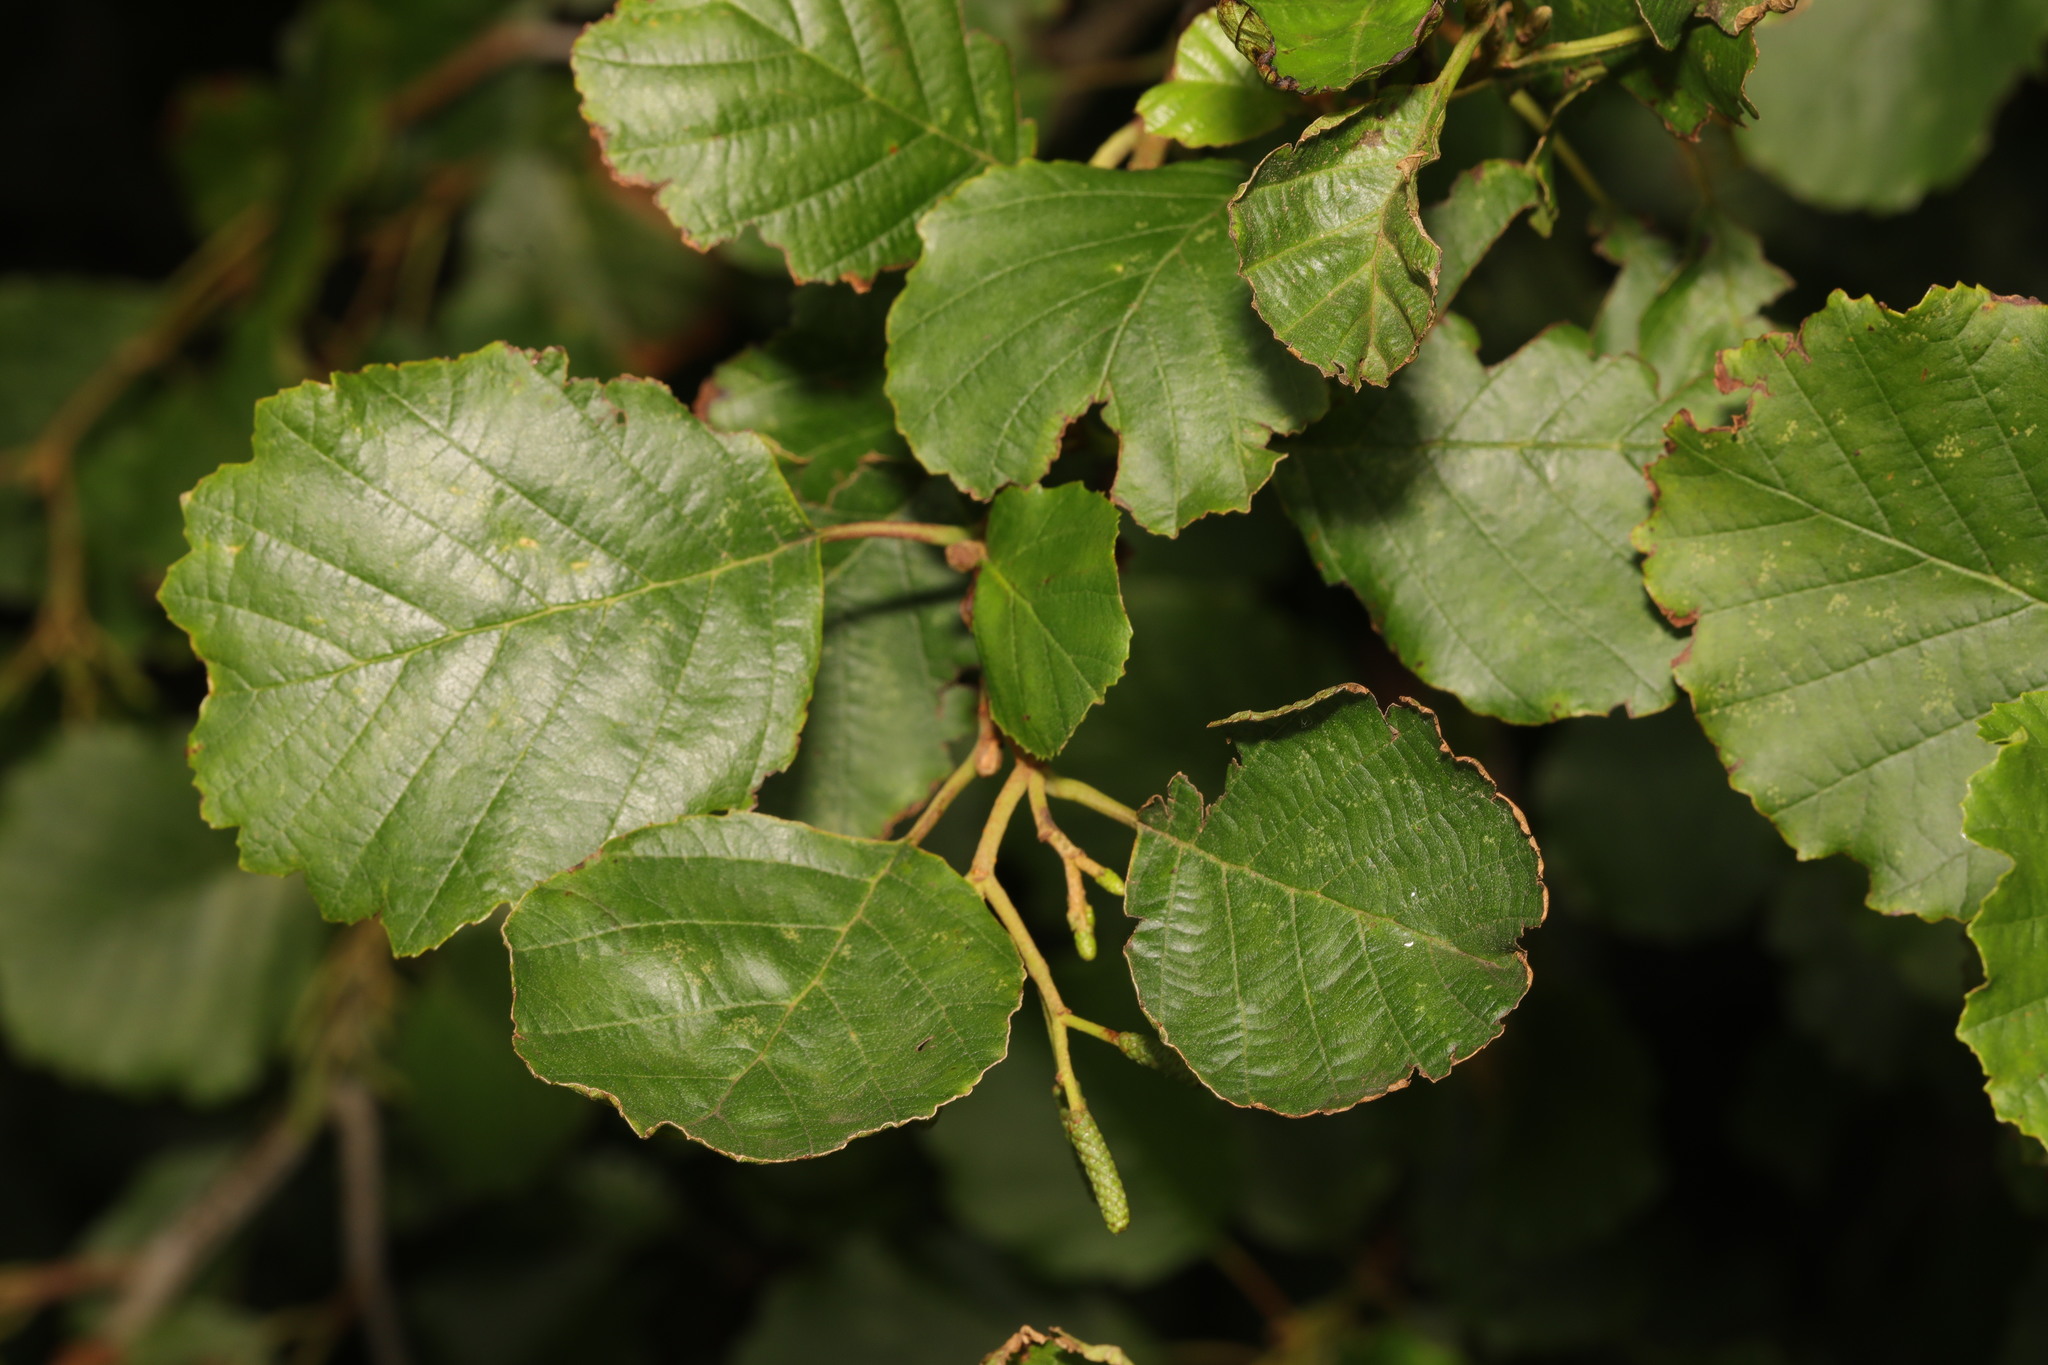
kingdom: Plantae
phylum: Tracheophyta
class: Magnoliopsida
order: Fagales
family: Betulaceae
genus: Alnus
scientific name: Alnus glutinosa
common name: Black alder
